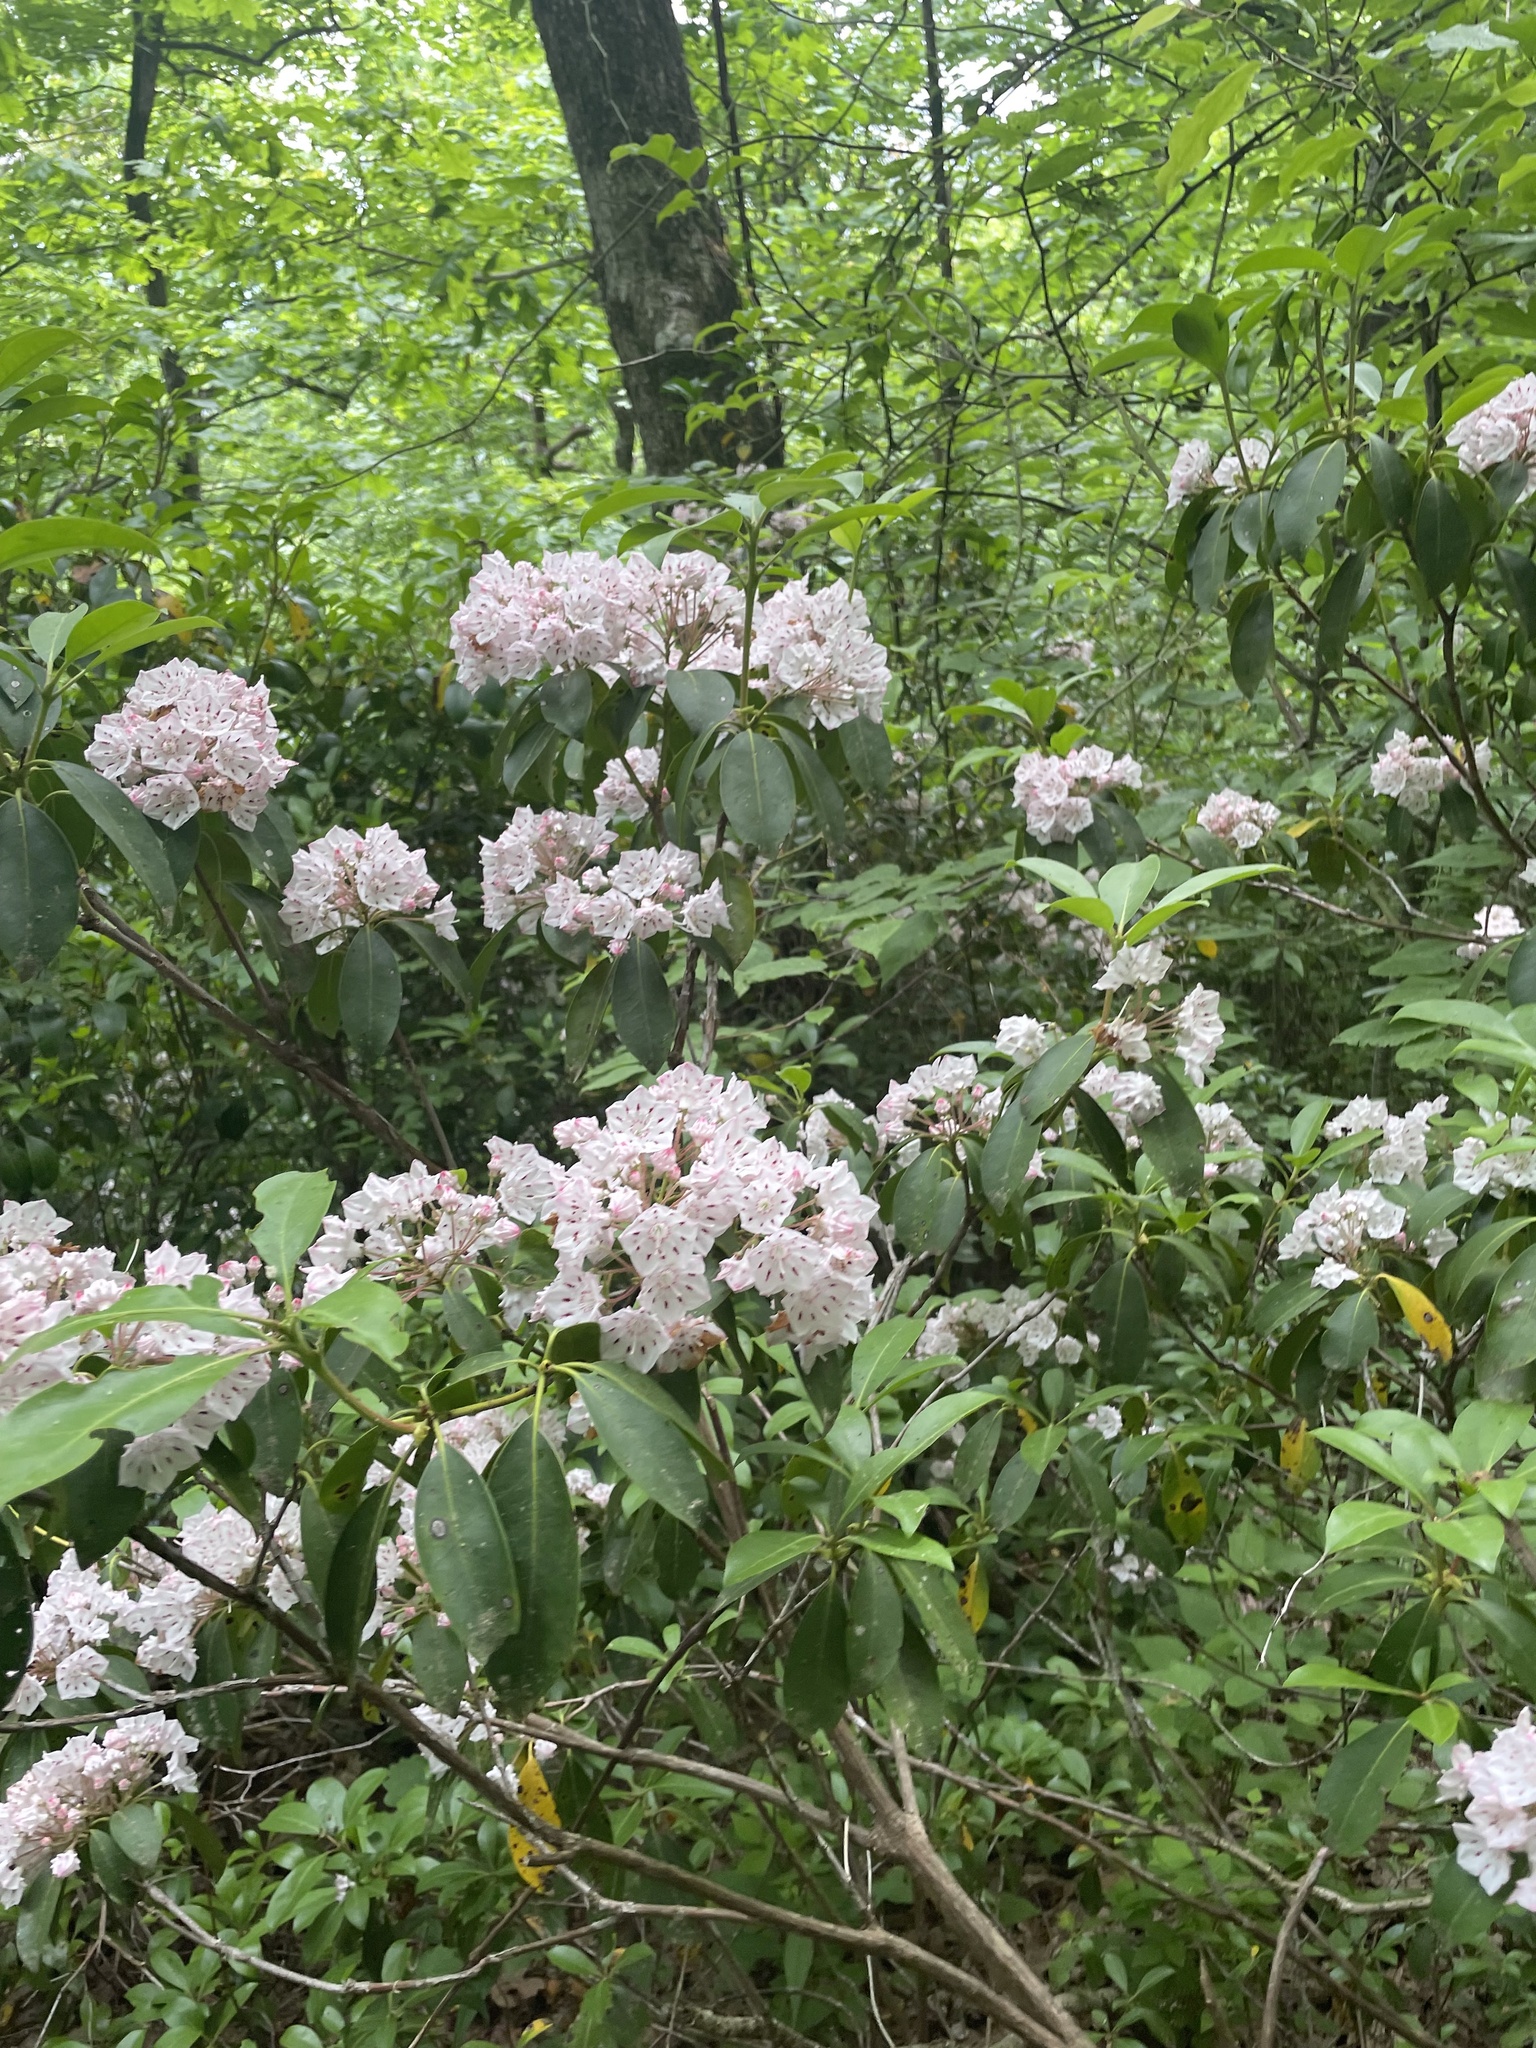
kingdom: Plantae
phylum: Tracheophyta
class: Magnoliopsida
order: Ericales
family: Ericaceae
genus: Kalmia
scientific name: Kalmia latifolia
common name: Mountain-laurel
